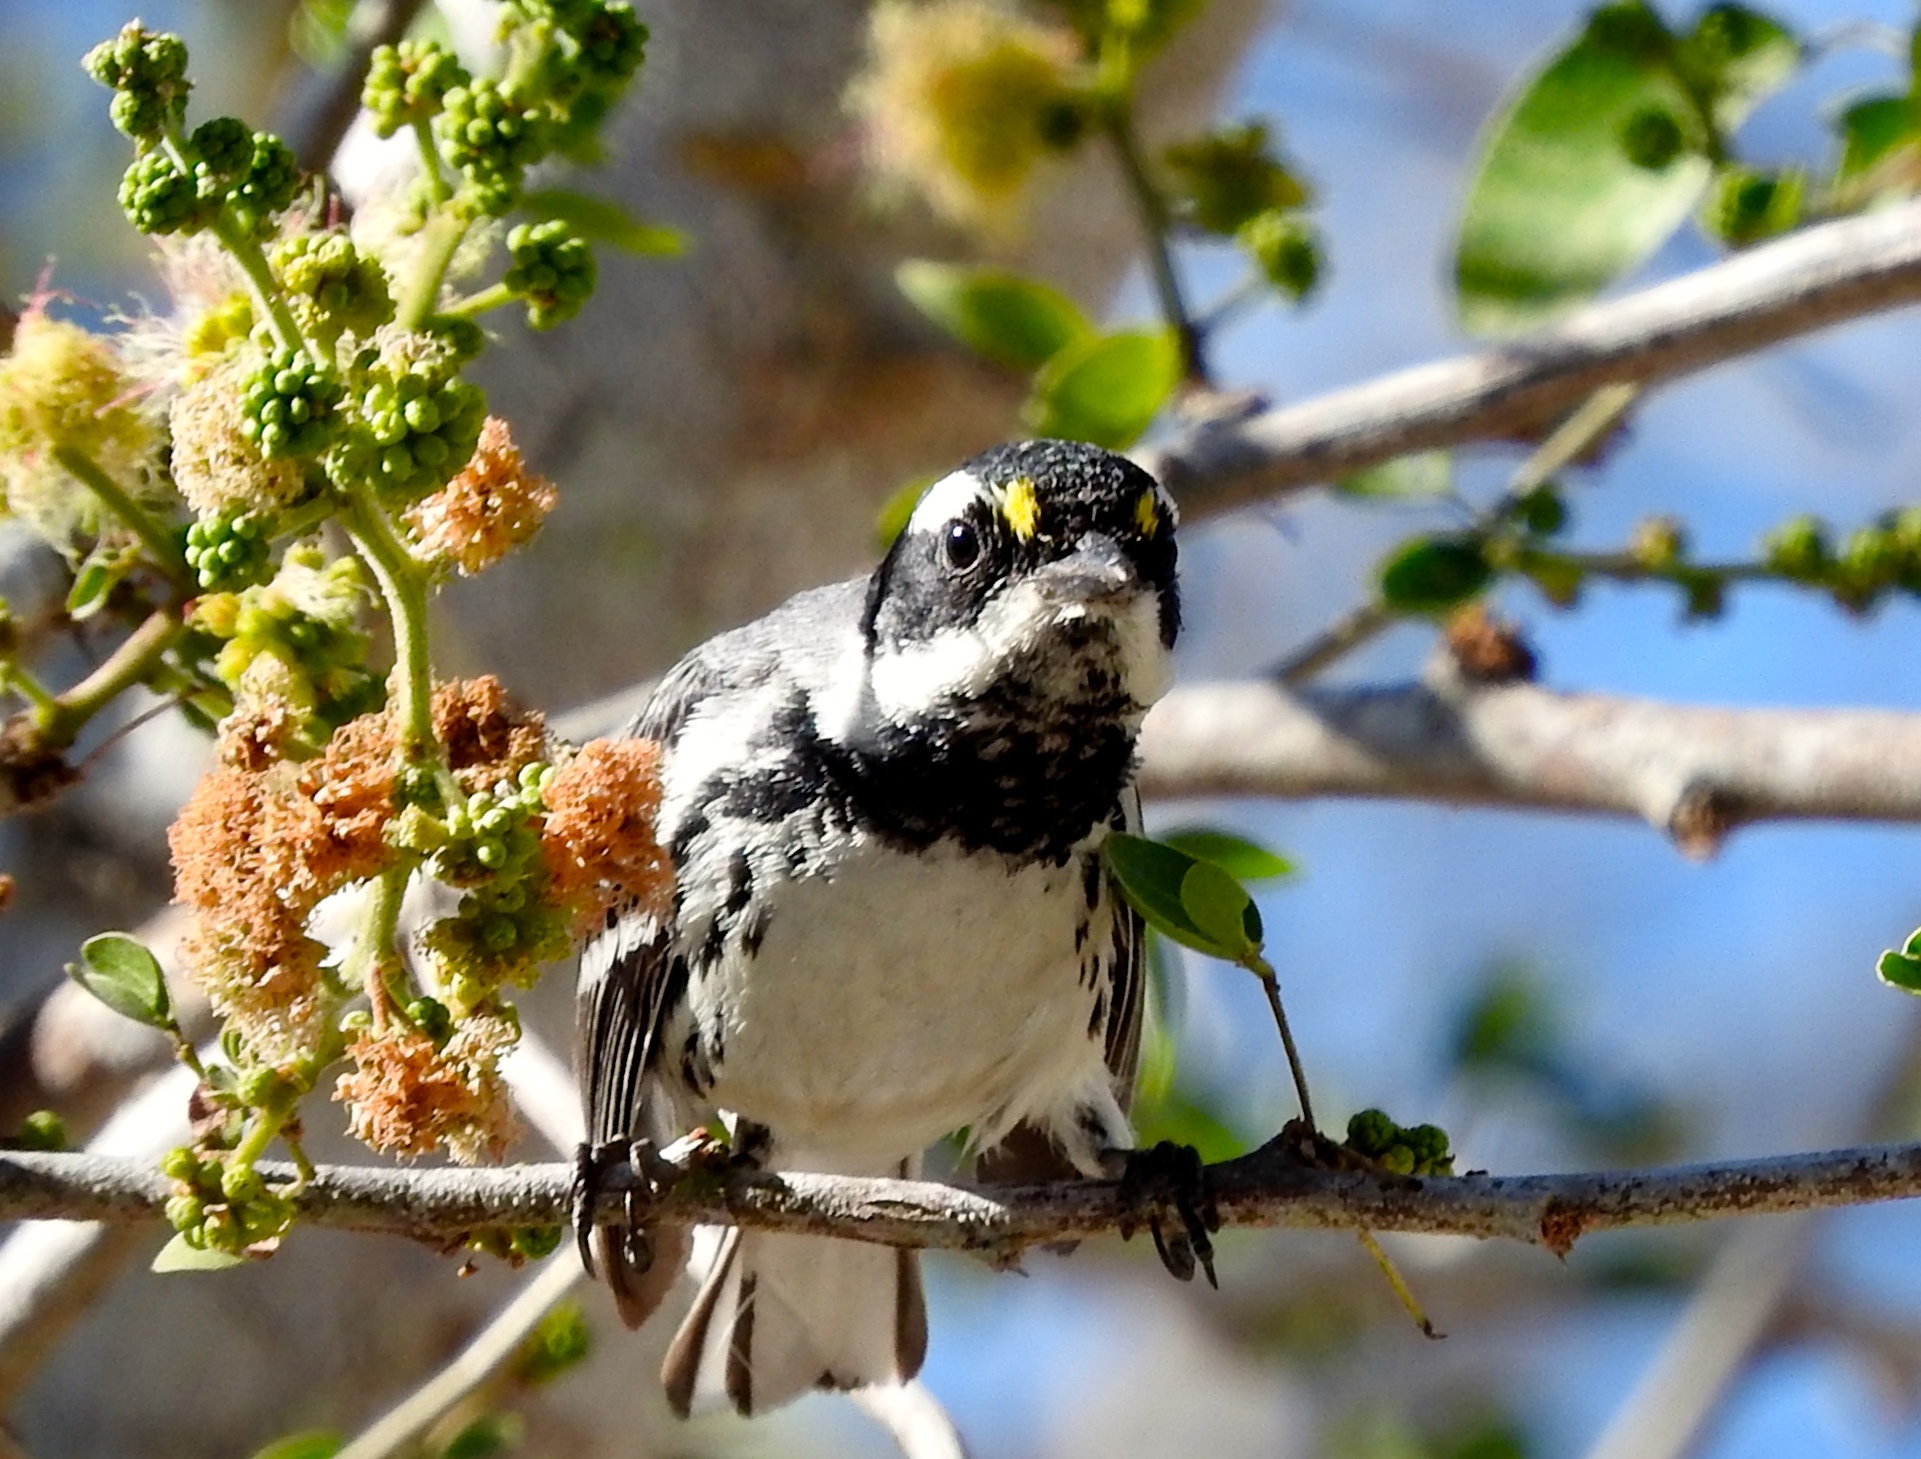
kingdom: Animalia
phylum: Chordata
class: Aves
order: Passeriformes
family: Parulidae
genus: Setophaga
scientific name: Setophaga nigrescens
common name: Black-throated gray warbler
